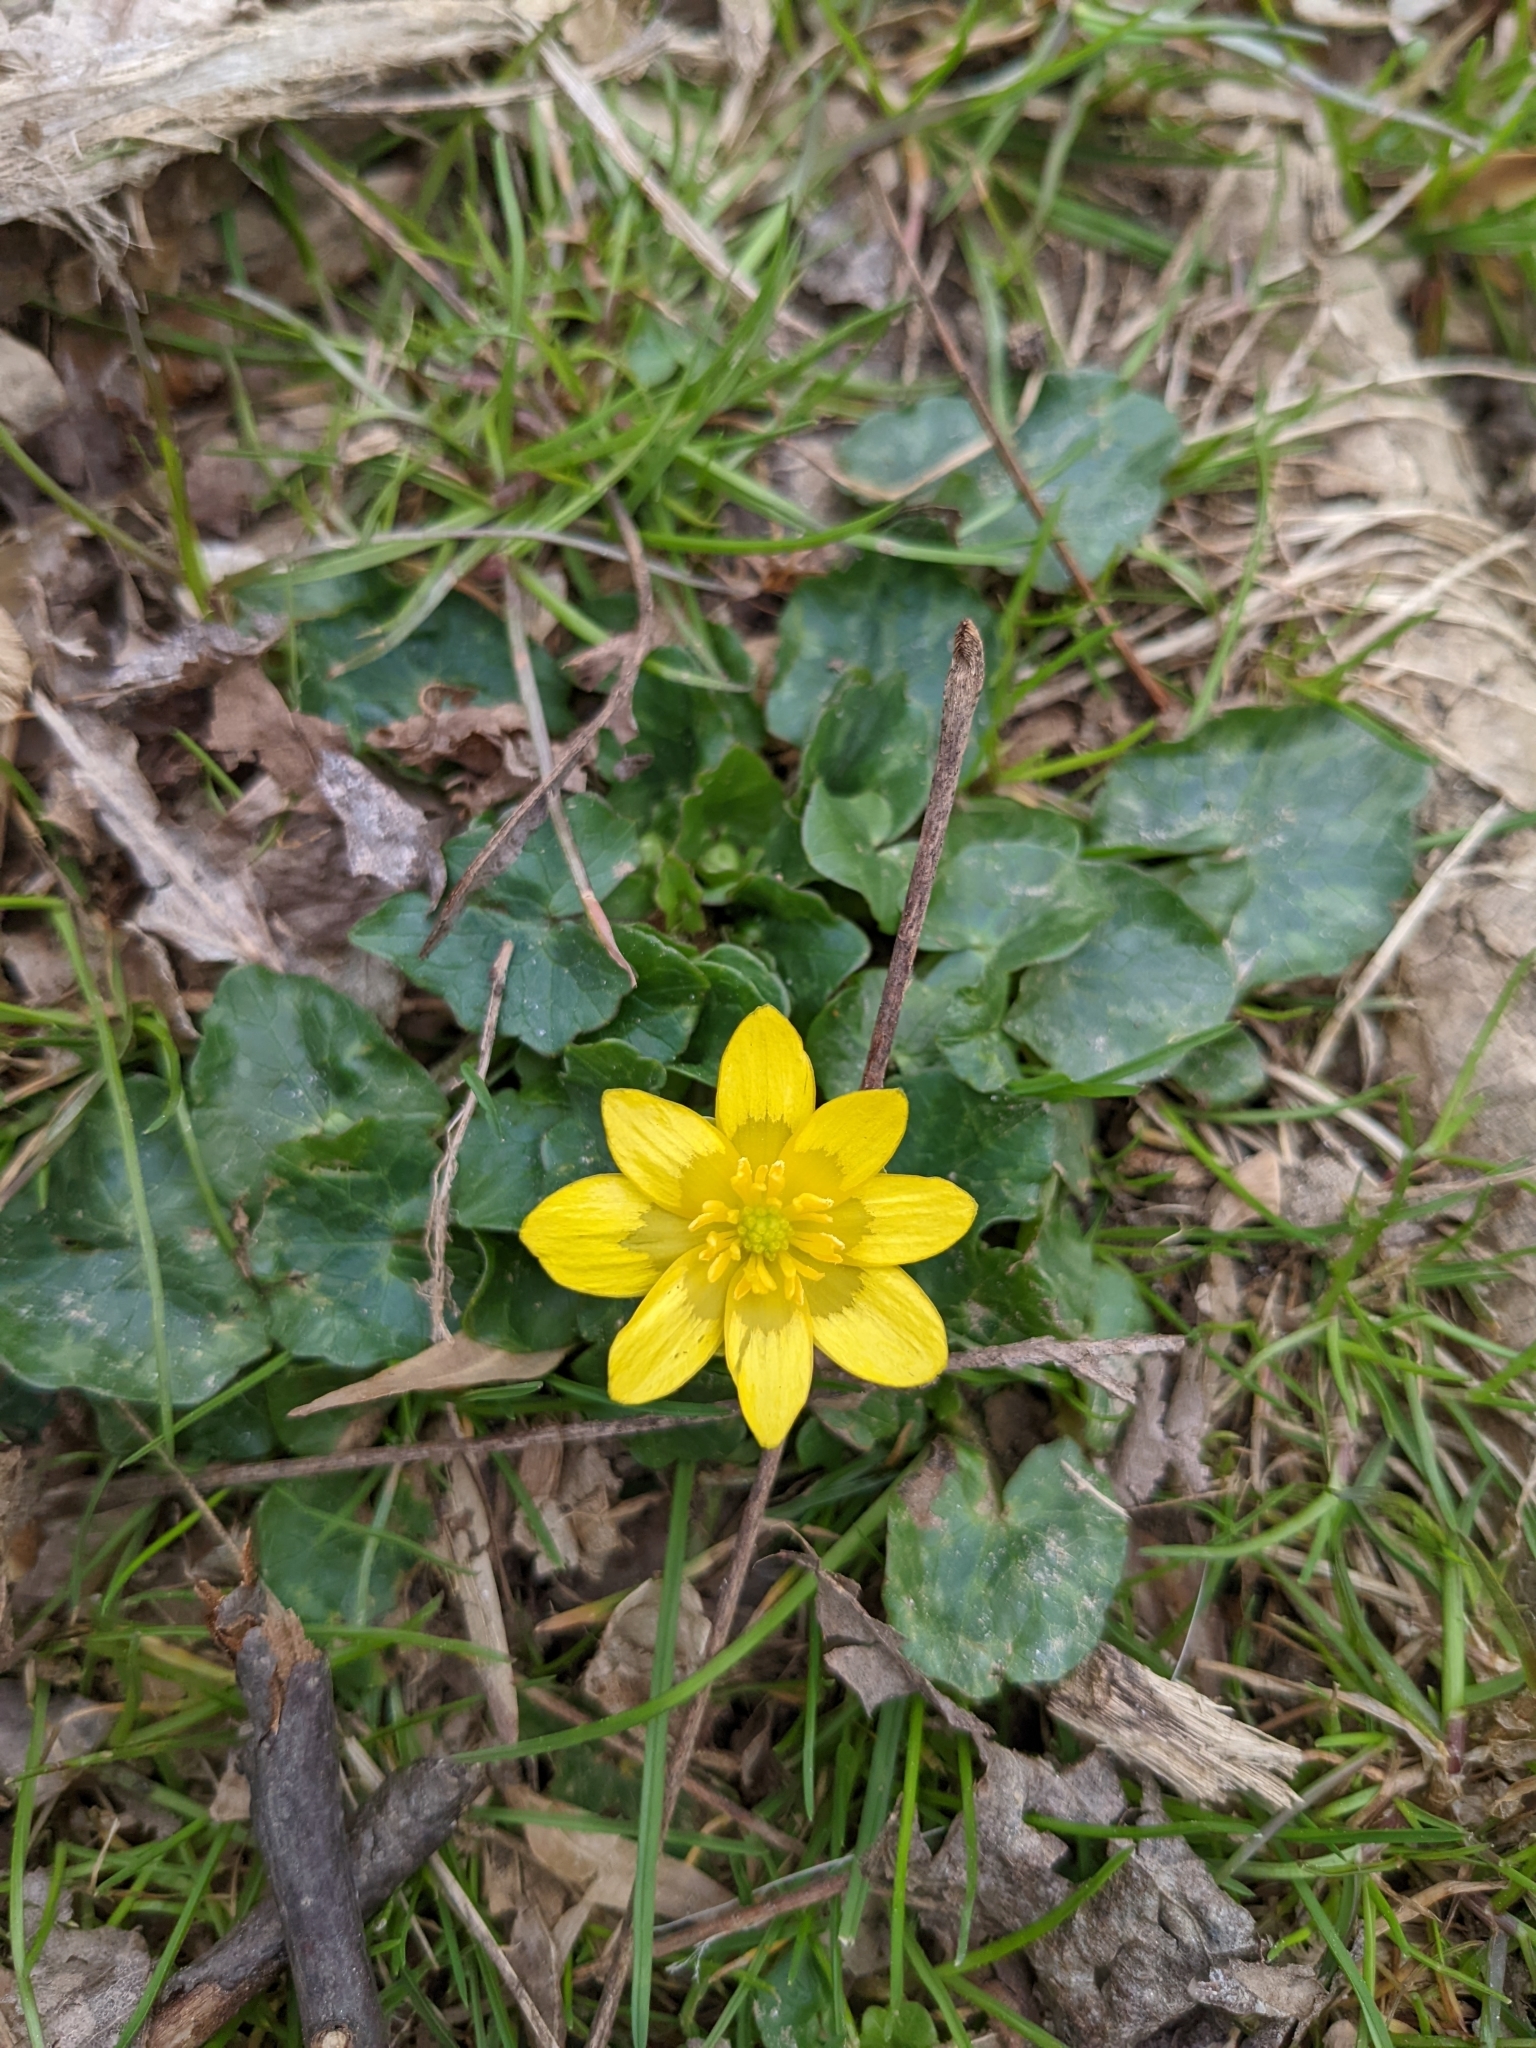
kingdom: Plantae
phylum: Tracheophyta
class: Magnoliopsida
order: Ranunculales
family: Ranunculaceae
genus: Ficaria
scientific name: Ficaria verna
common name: Lesser celandine
